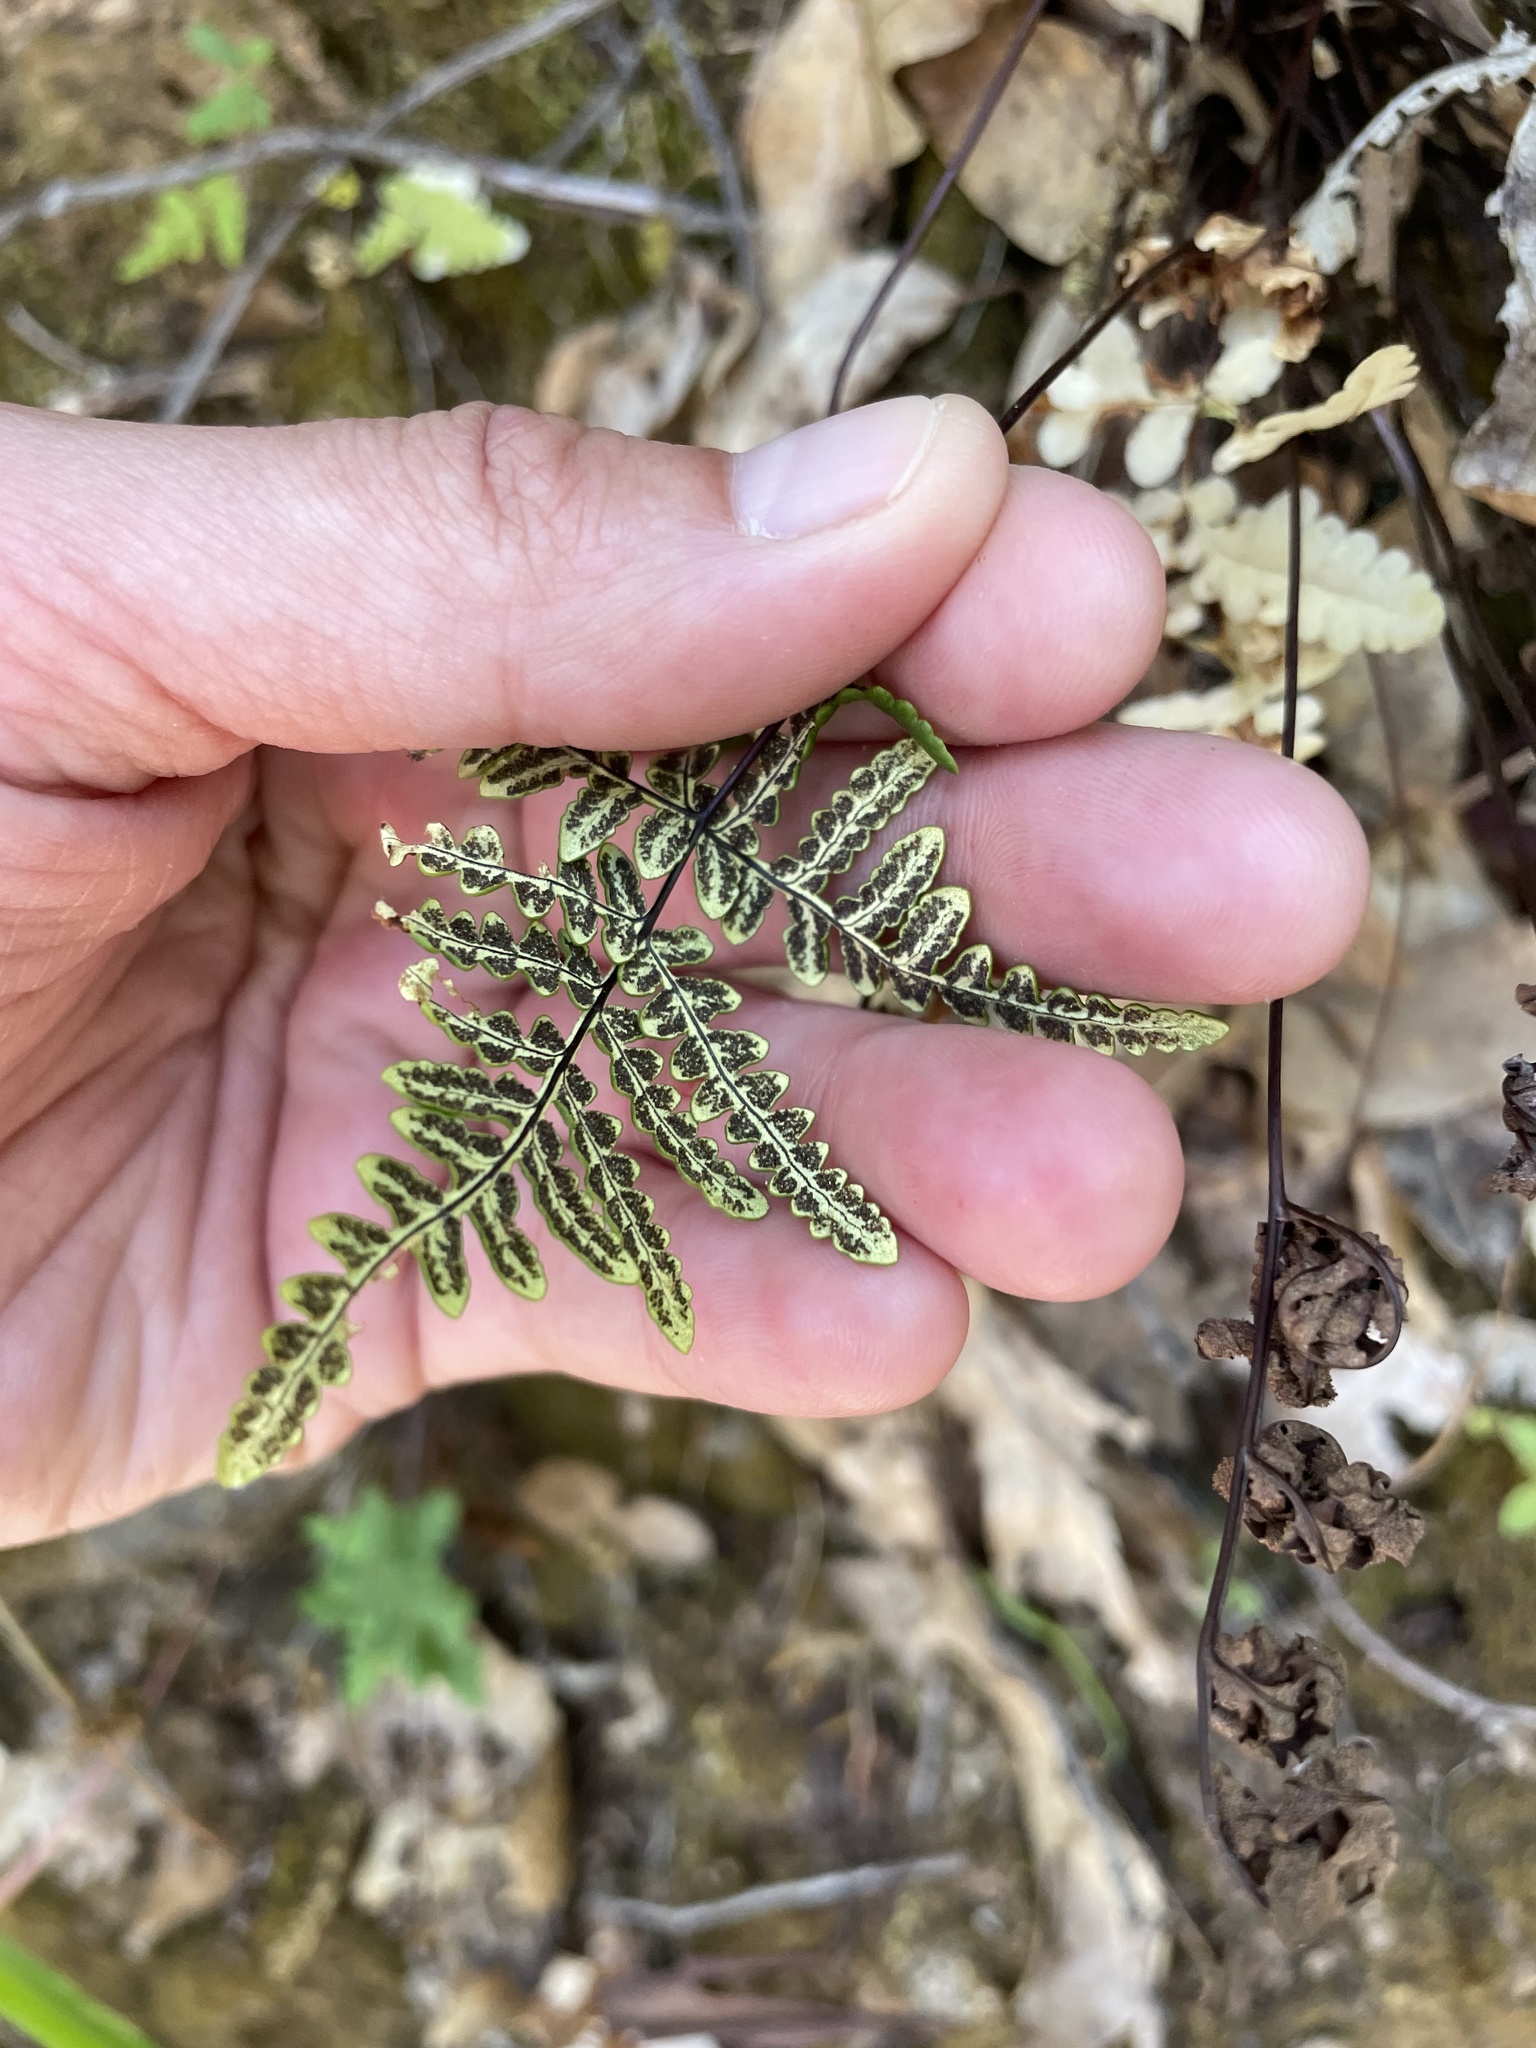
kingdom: Plantae
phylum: Tracheophyta
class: Polypodiopsida
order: Polypodiales
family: Pteridaceae
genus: Pentagramma
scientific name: Pentagramma triangularis
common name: Gold fern
